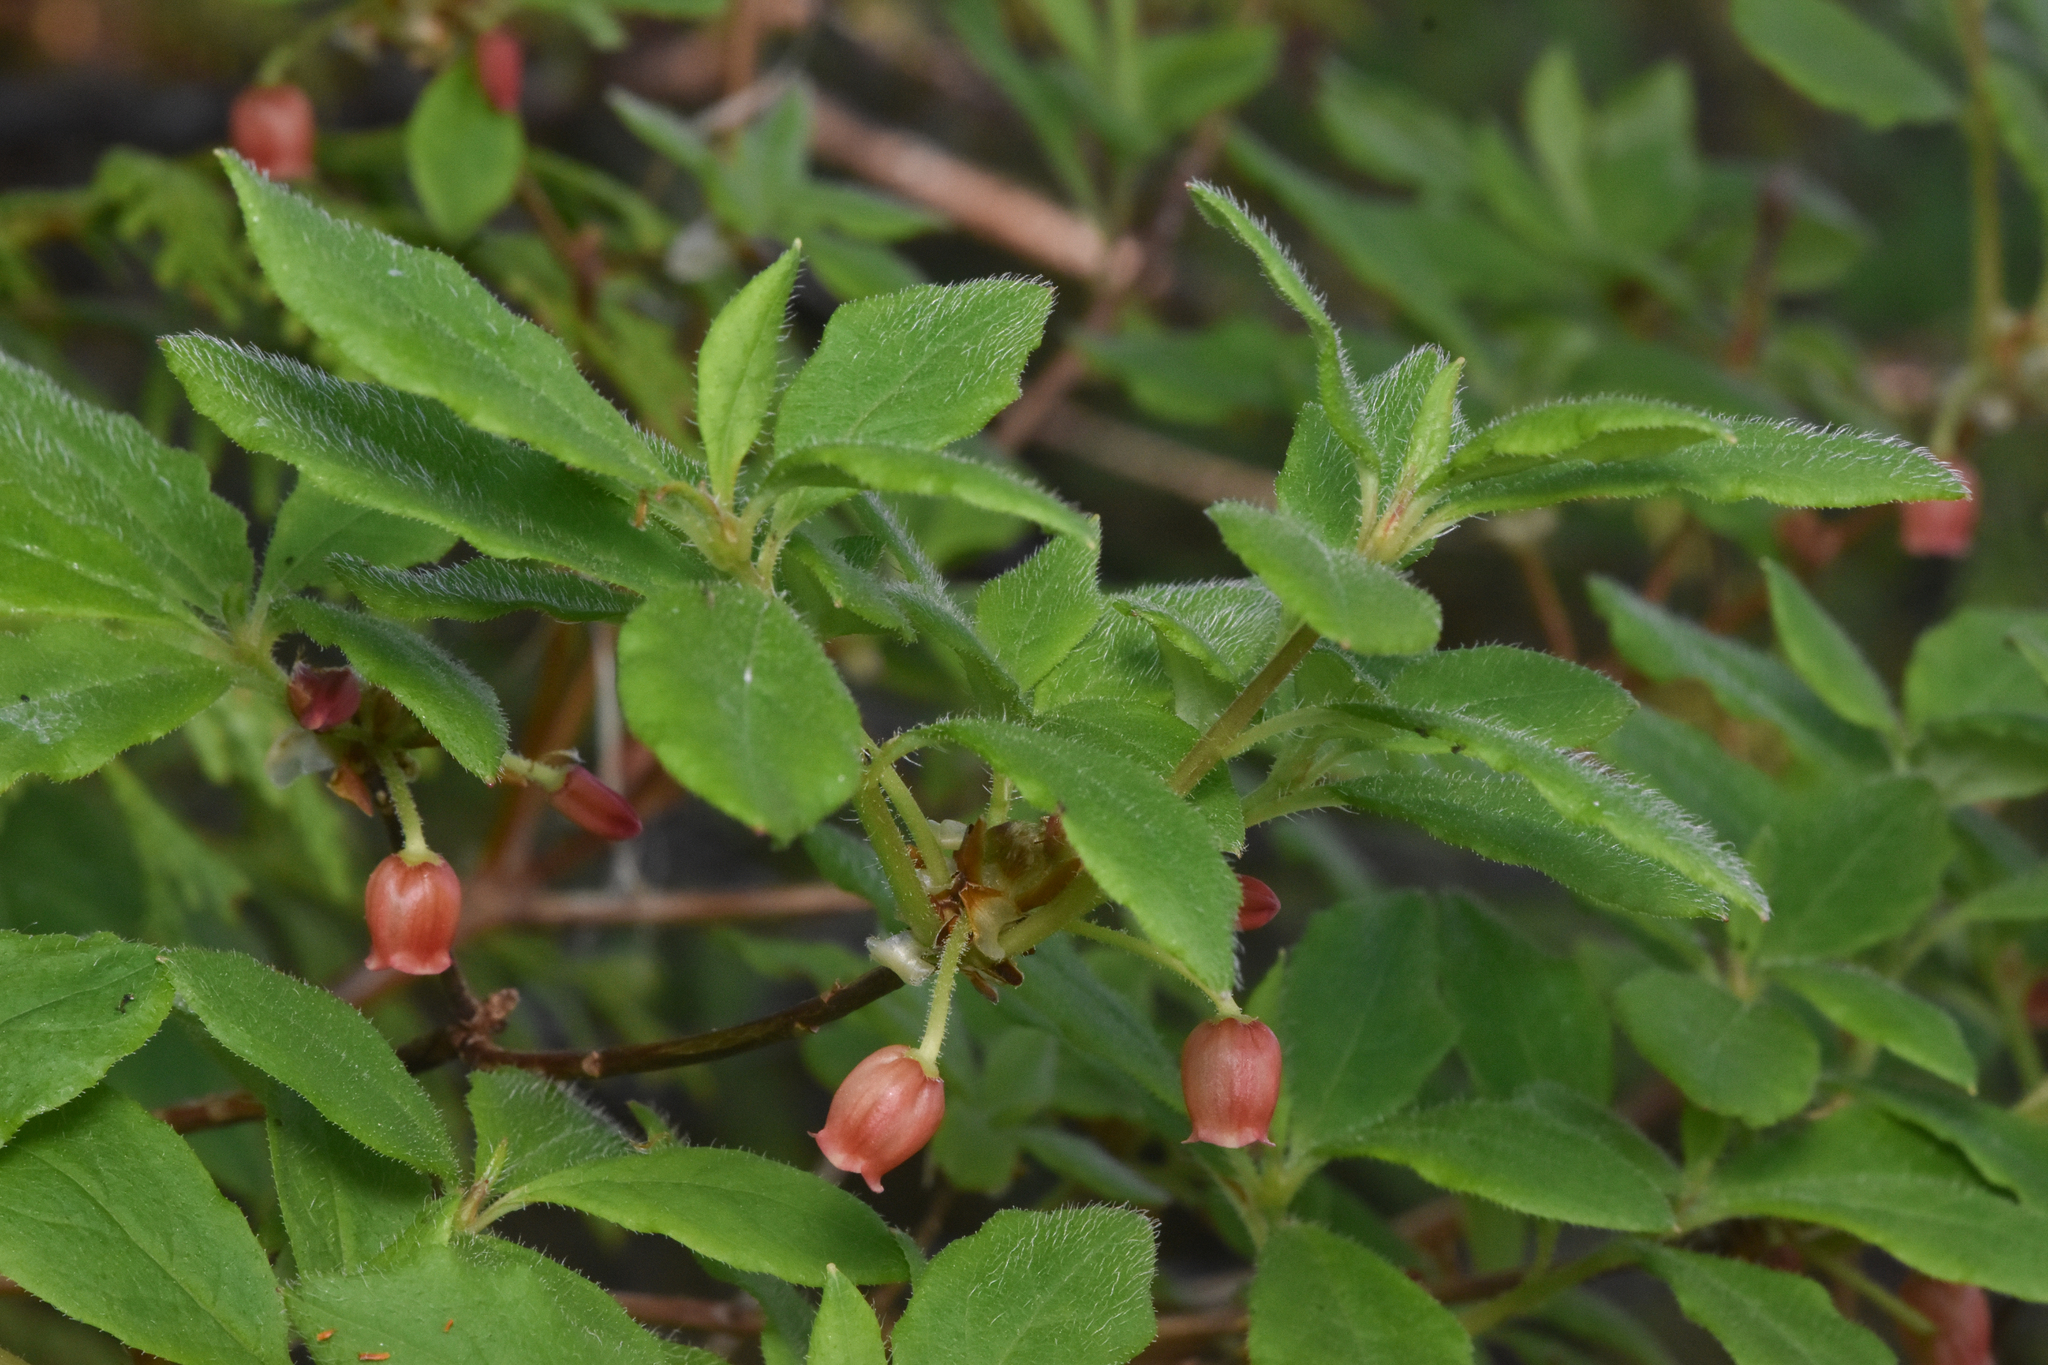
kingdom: Plantae
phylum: Tracheophyta
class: Magnoliopsida
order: Ericales
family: Ericaceae
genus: Rhododendron
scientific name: Rhododendron menziesii
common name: Pacific menziesia
